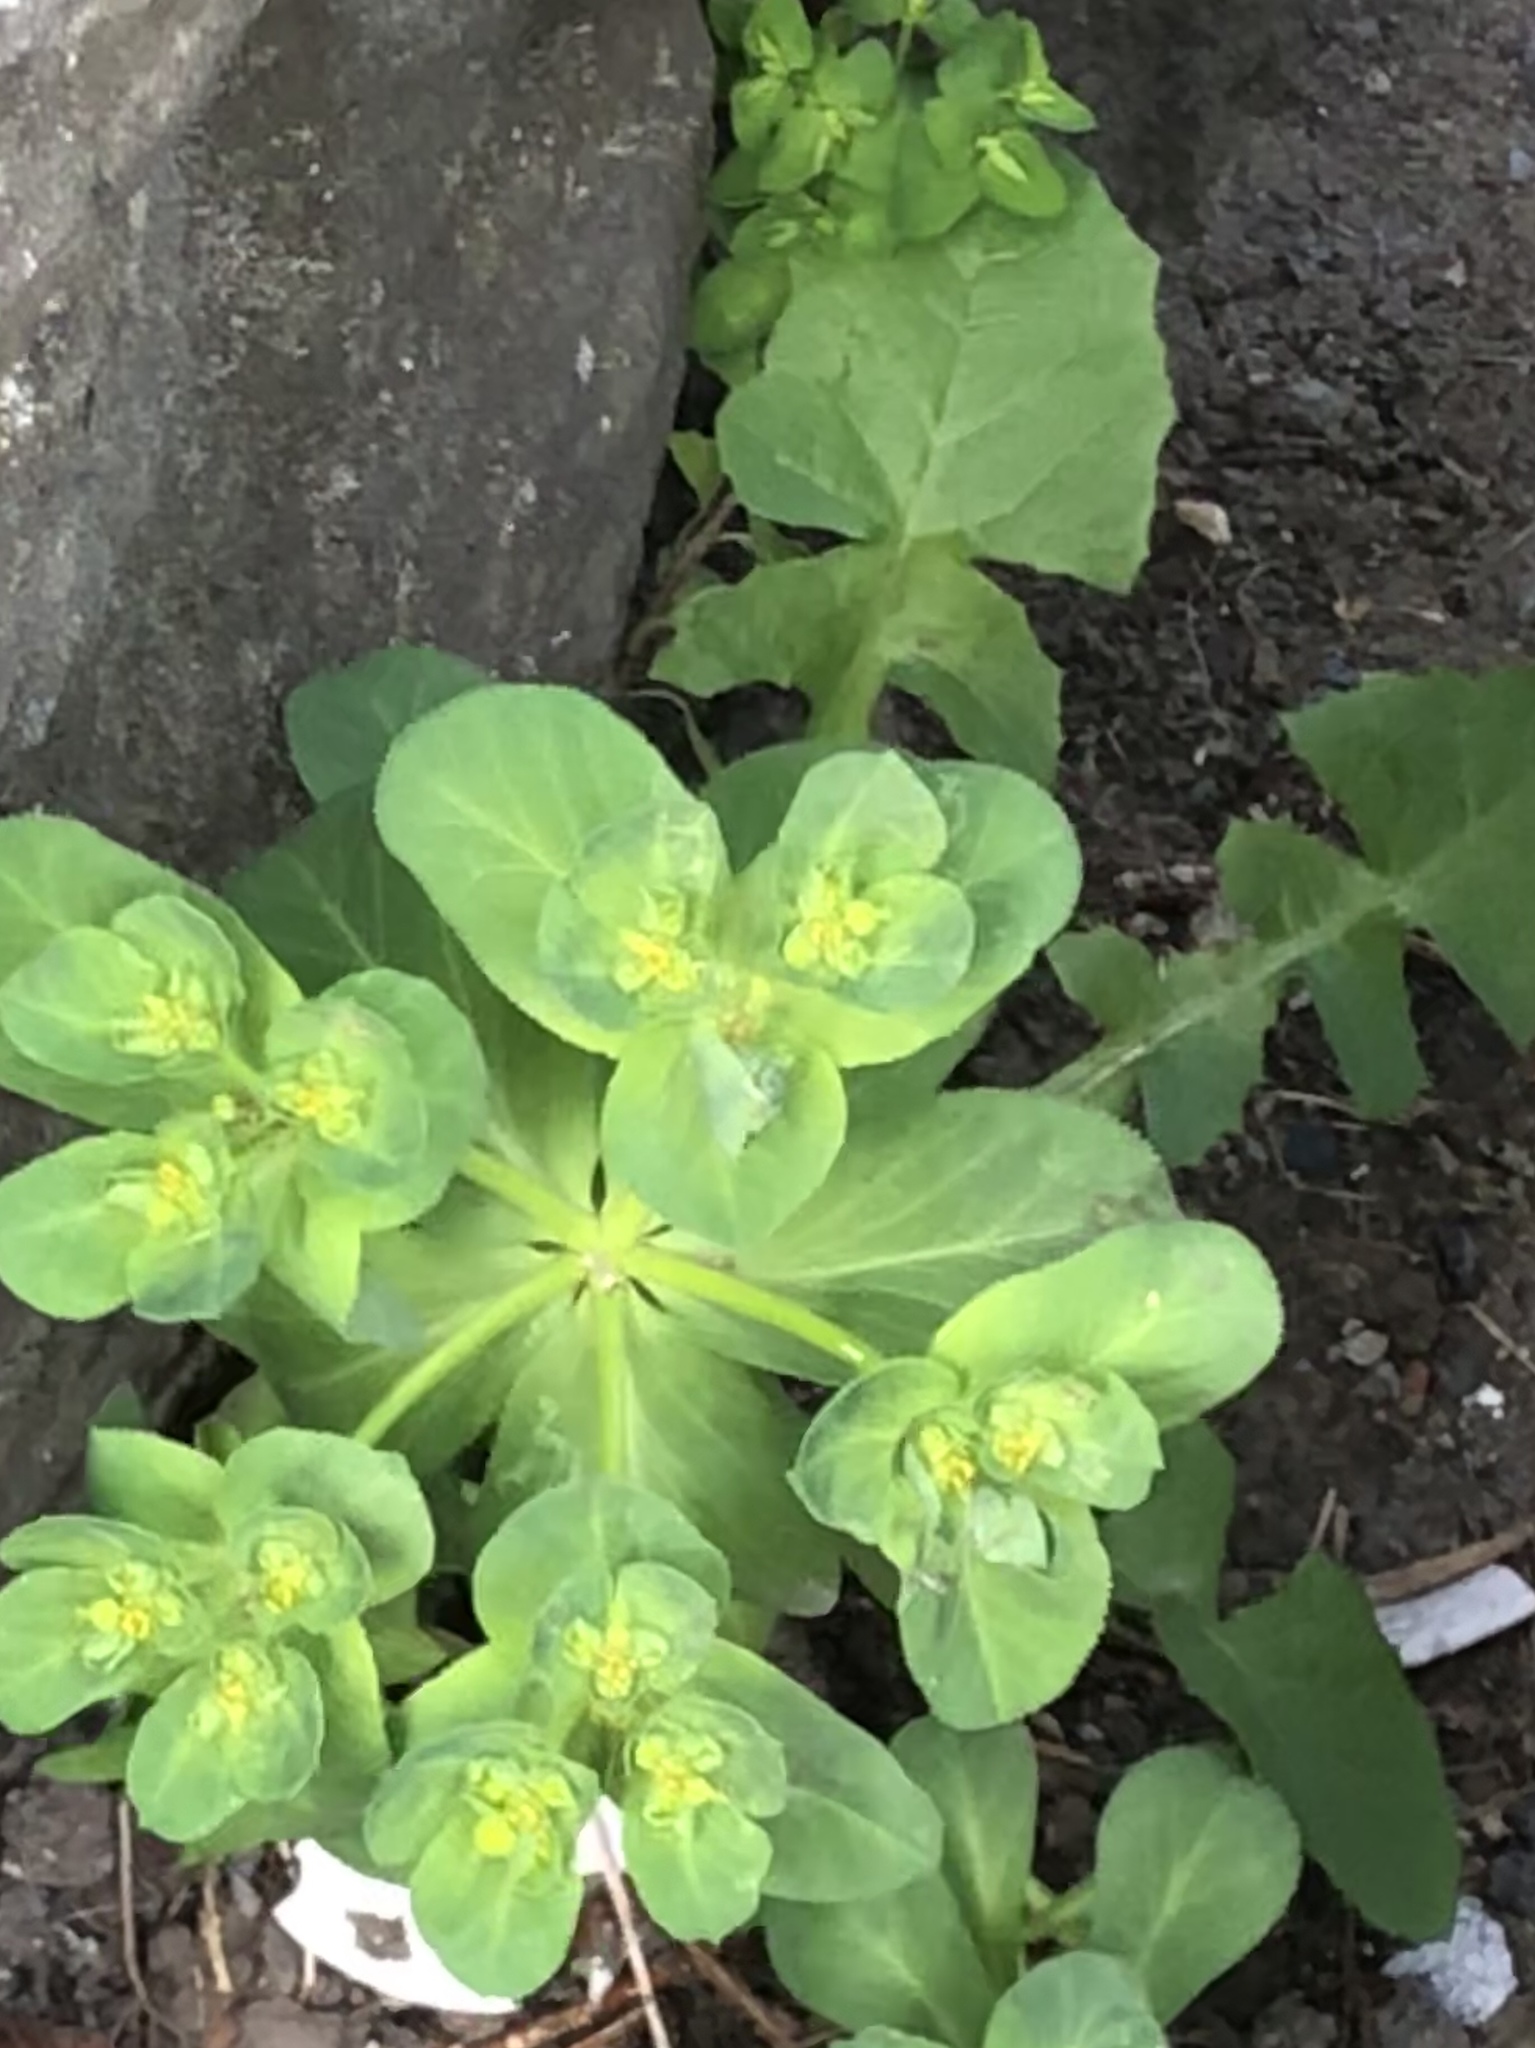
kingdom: Plantae
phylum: Tracheophyta
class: Magnoliopsida
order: Malpighiales
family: Euphorbiaceae
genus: Euphorbia
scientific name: Euphorbia helioscopia
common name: Sun spurge
